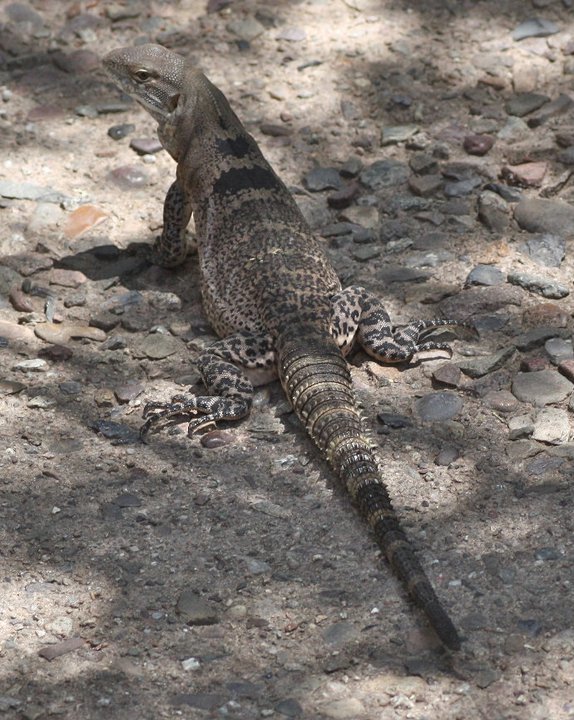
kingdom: Animalia
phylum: Chordata
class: Squamata
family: Iguanidae
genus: Ctenosaura
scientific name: Ctenosaura
